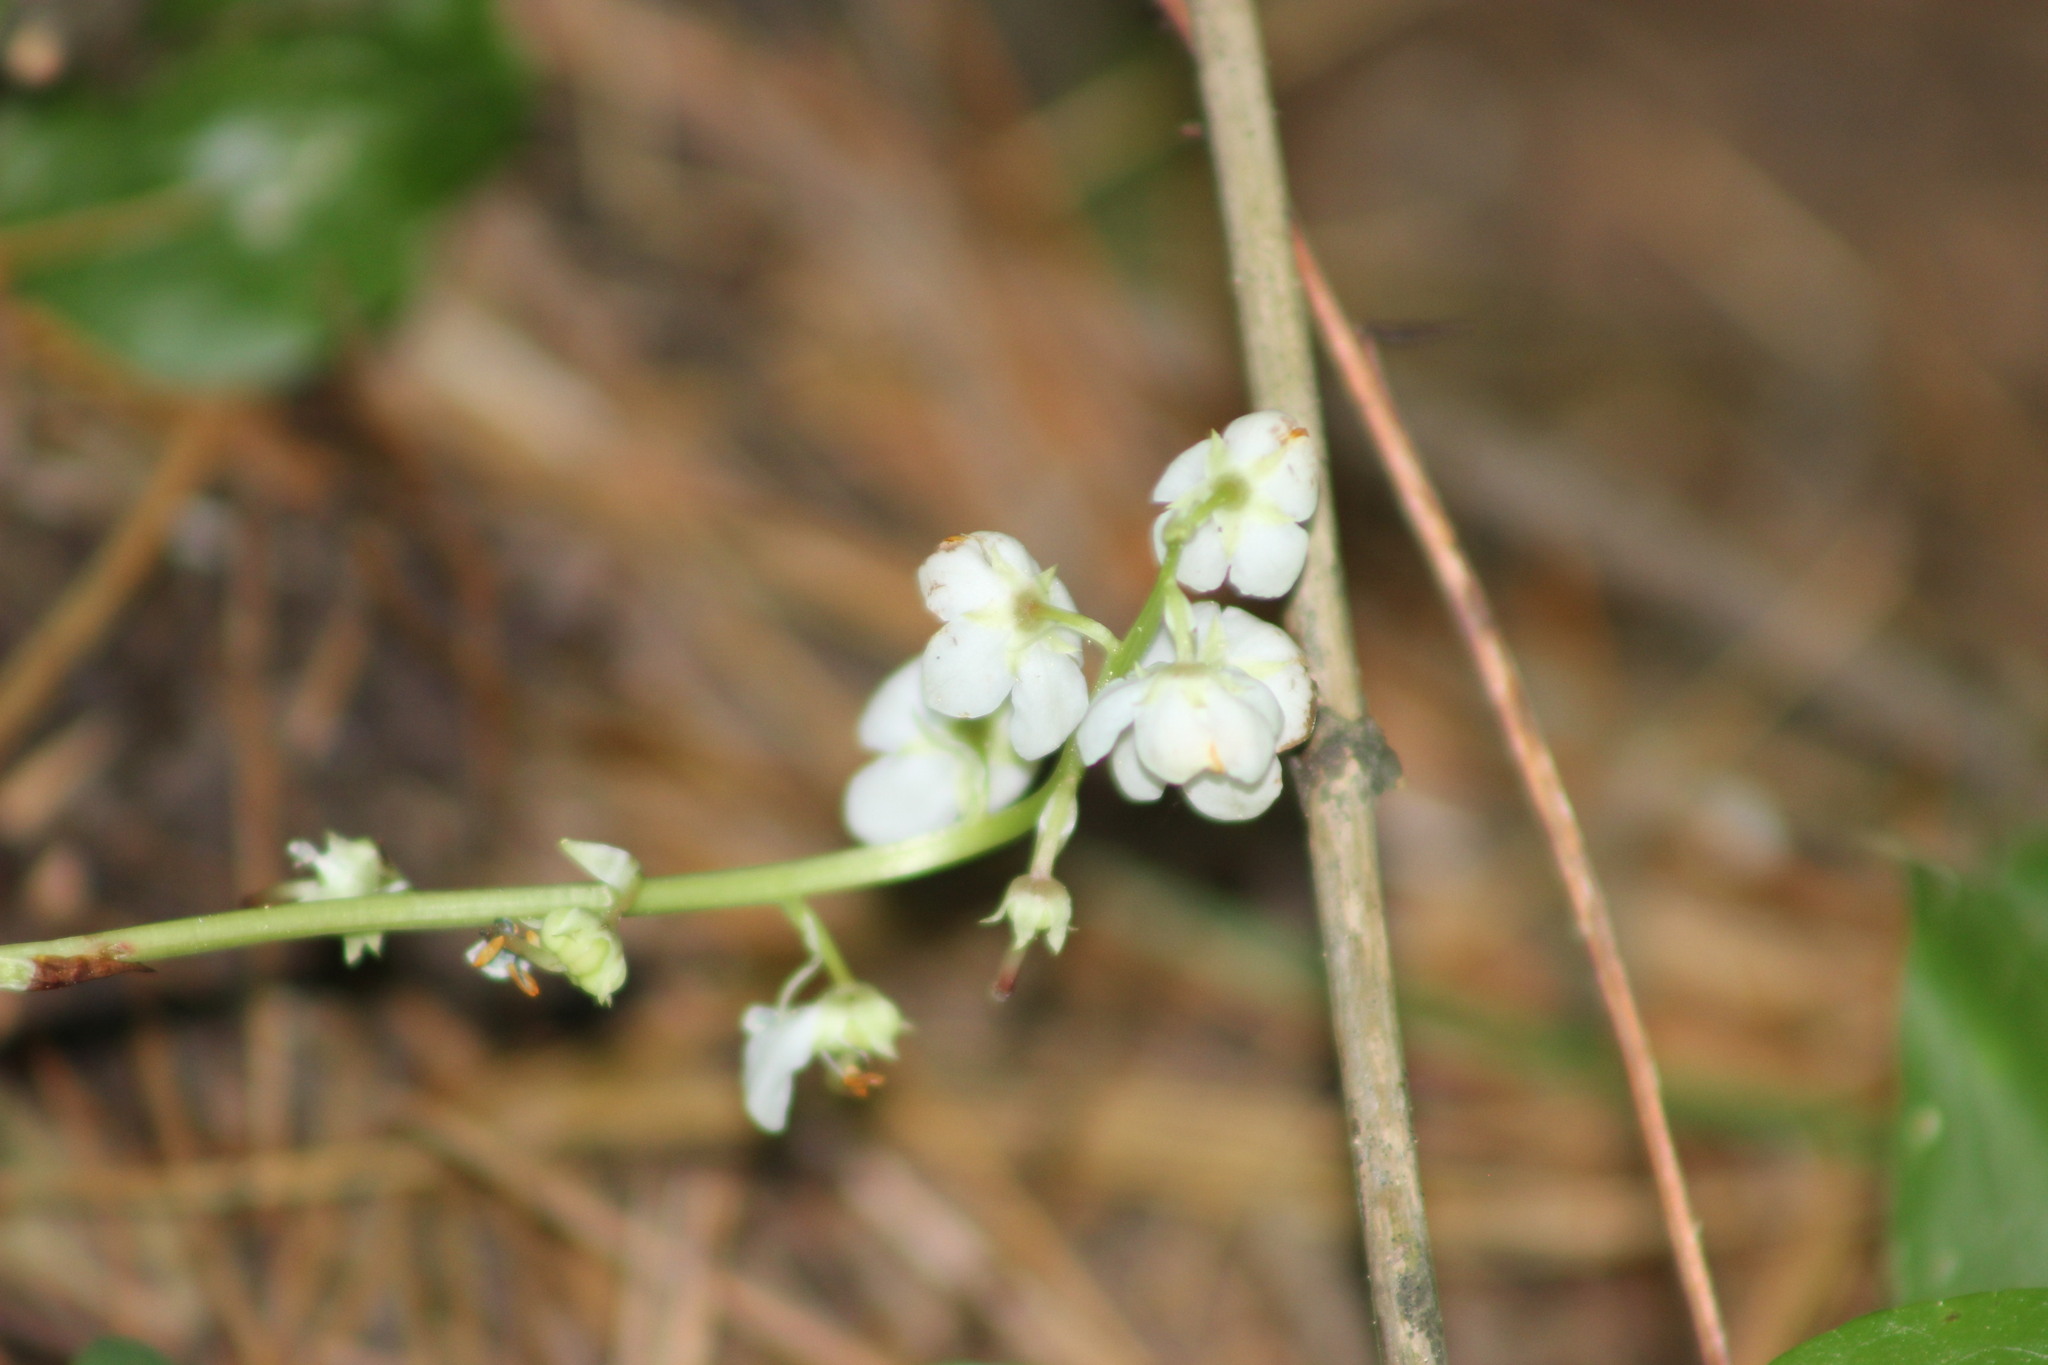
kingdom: Plantae
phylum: Tracheophyta
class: Magnoliopsida
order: Ericales
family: Ericaceae
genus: Pyrola
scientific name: Pyrola rotundifolia
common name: Round-leaved wintergreen
